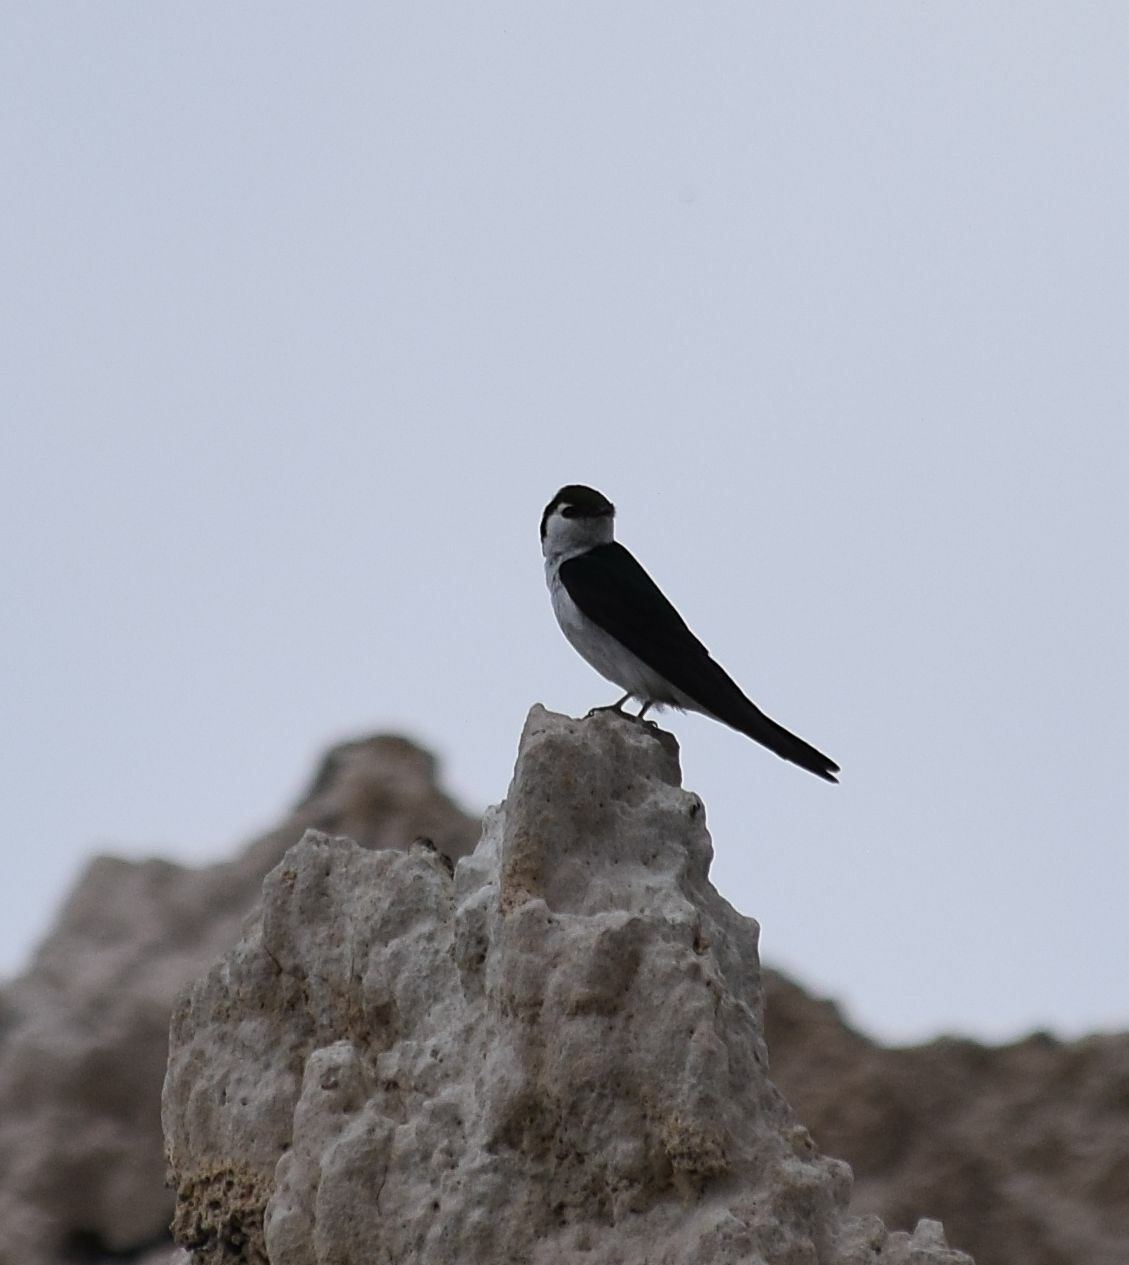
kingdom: Animalia
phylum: Chordata
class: Aves
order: Passeriformes
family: Hirundinidae
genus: Tachycineta
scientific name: Tachycineta thalassina
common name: Violet-green swallow
